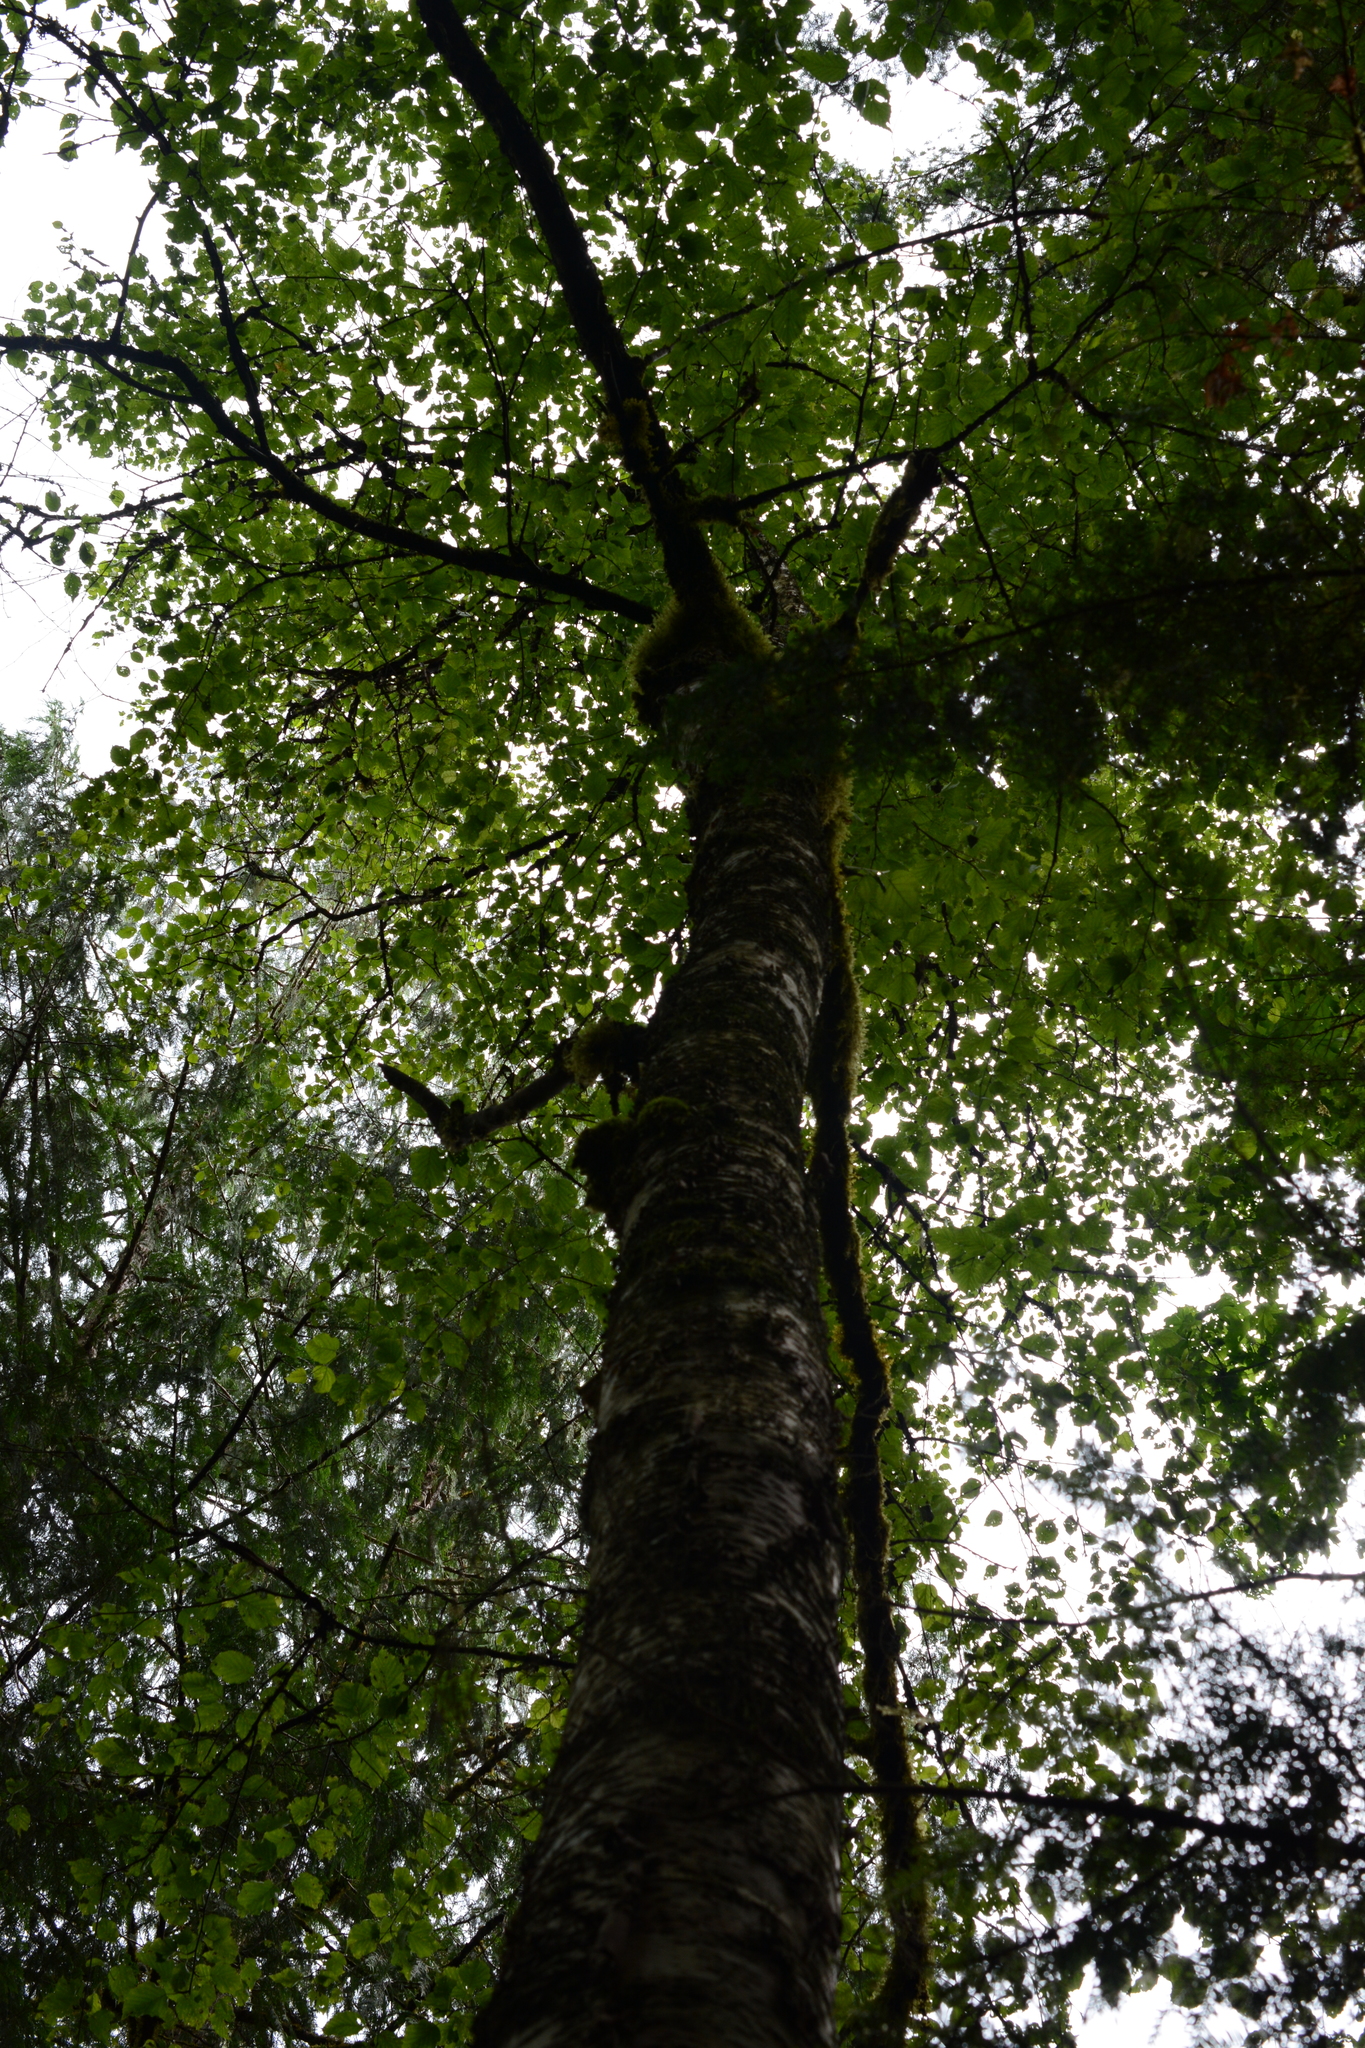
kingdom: Plantae
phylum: Tracheophyta
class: Magnoliopsida
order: Fagales
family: Betulaceae
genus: Betula
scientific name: Betula papyrifera
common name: Paper birch
